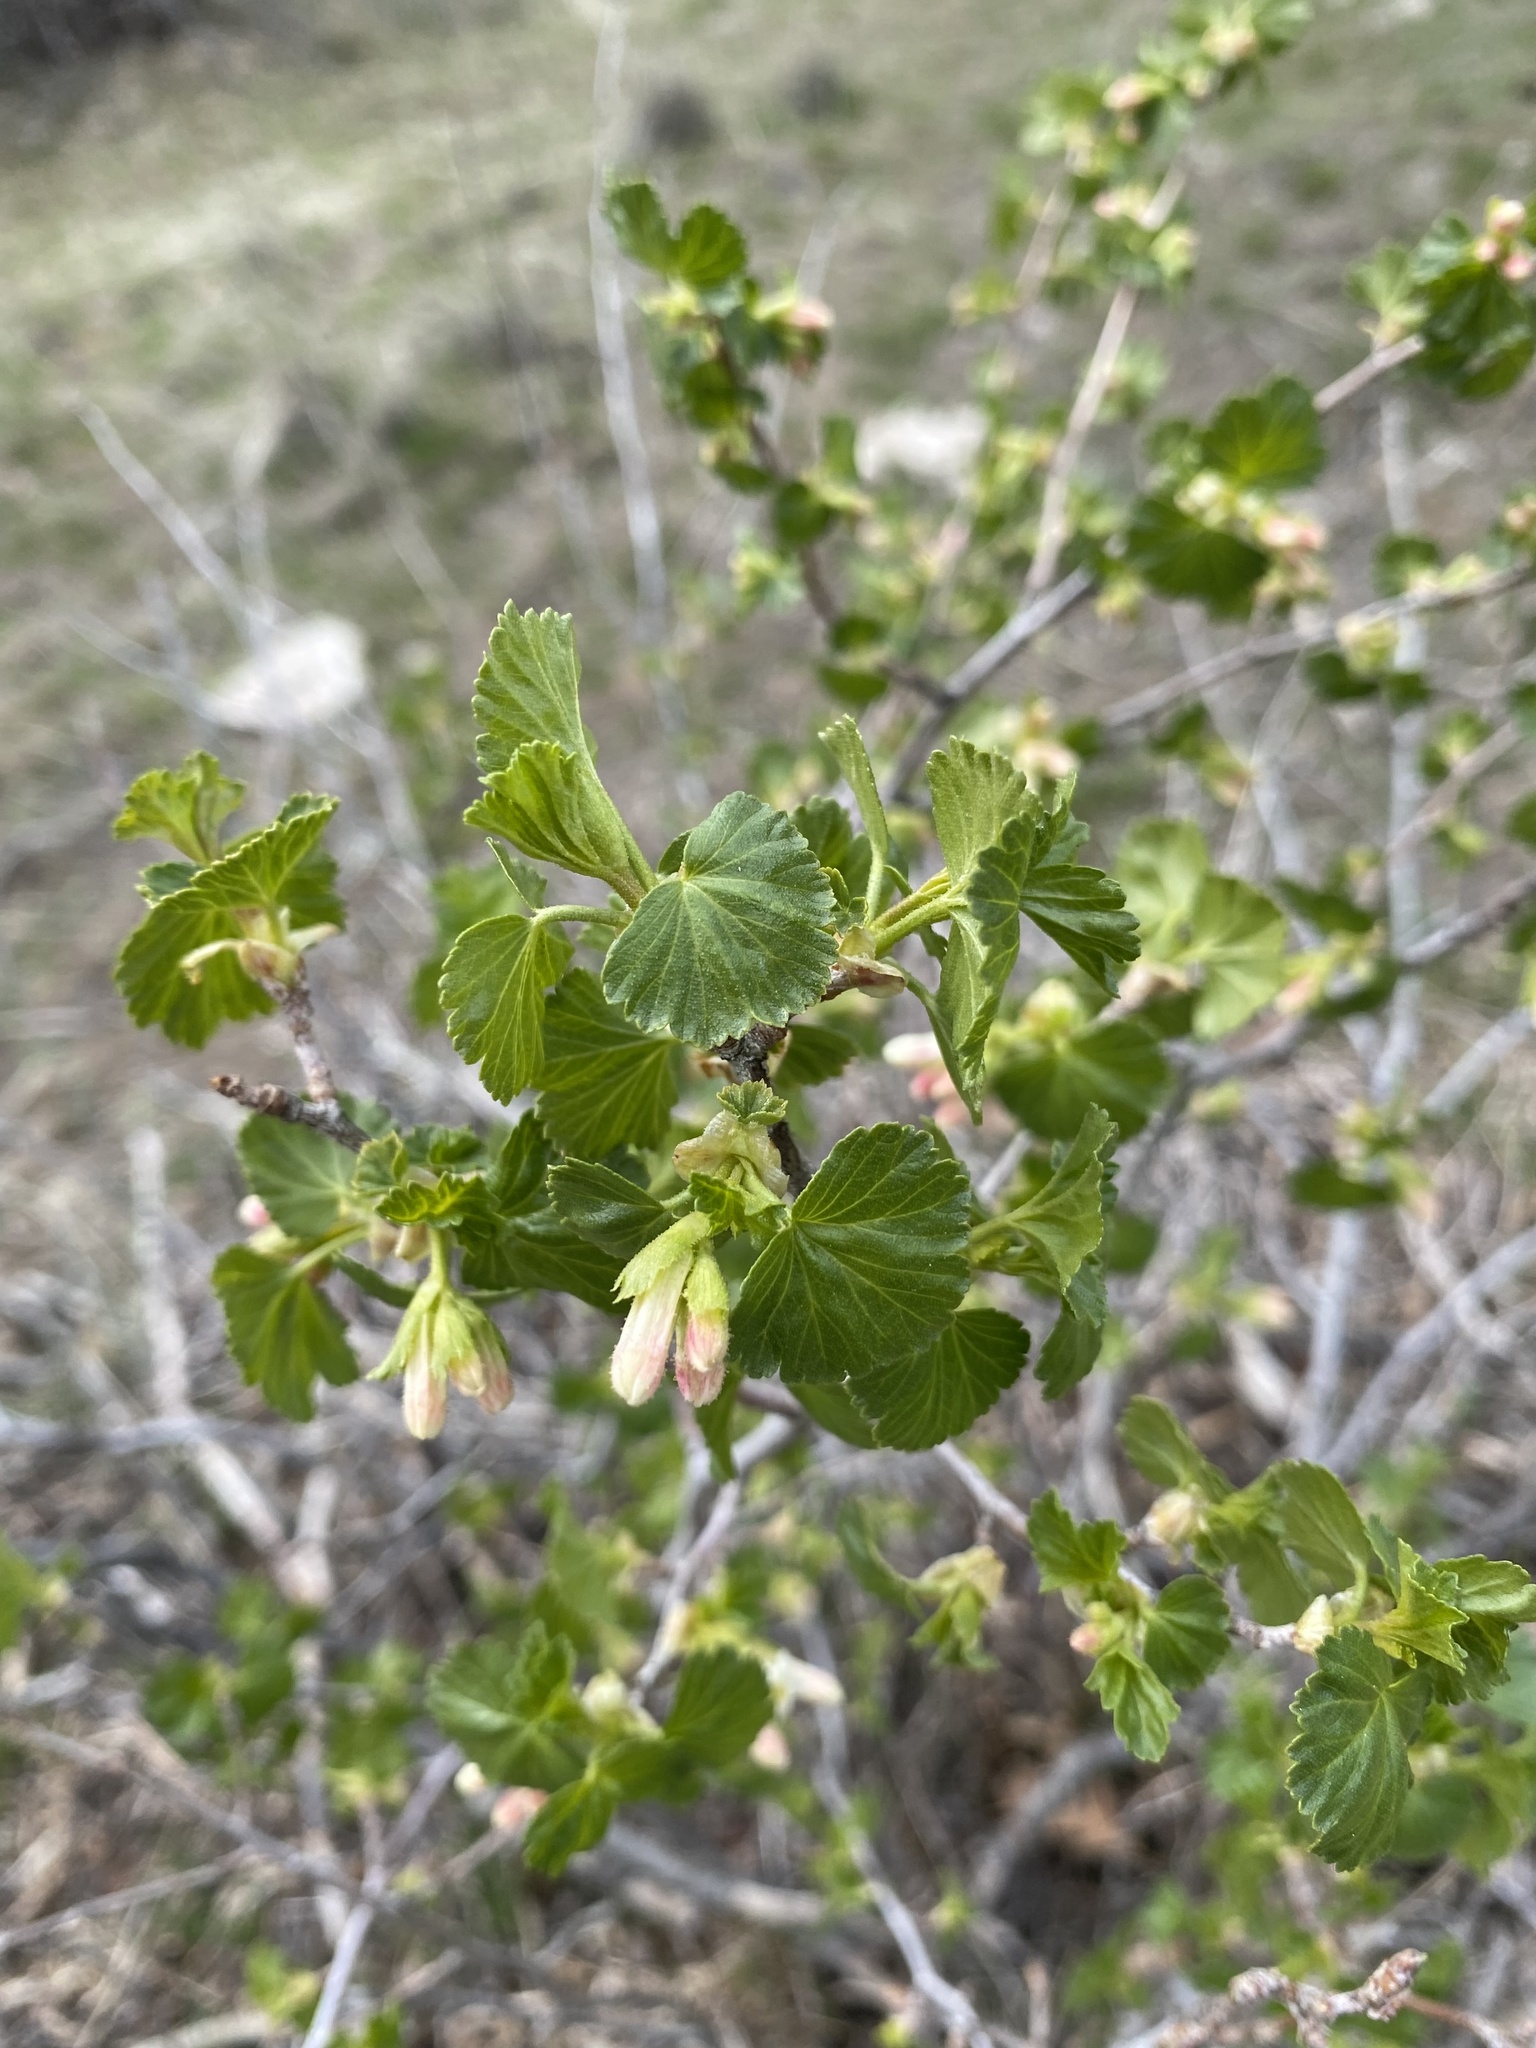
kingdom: Plantae
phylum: Tracheophyta
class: Magnoliopsida
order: Saxifragales
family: Grossulariaceae
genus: Ribes
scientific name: Ribes cereum
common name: Wax currant
